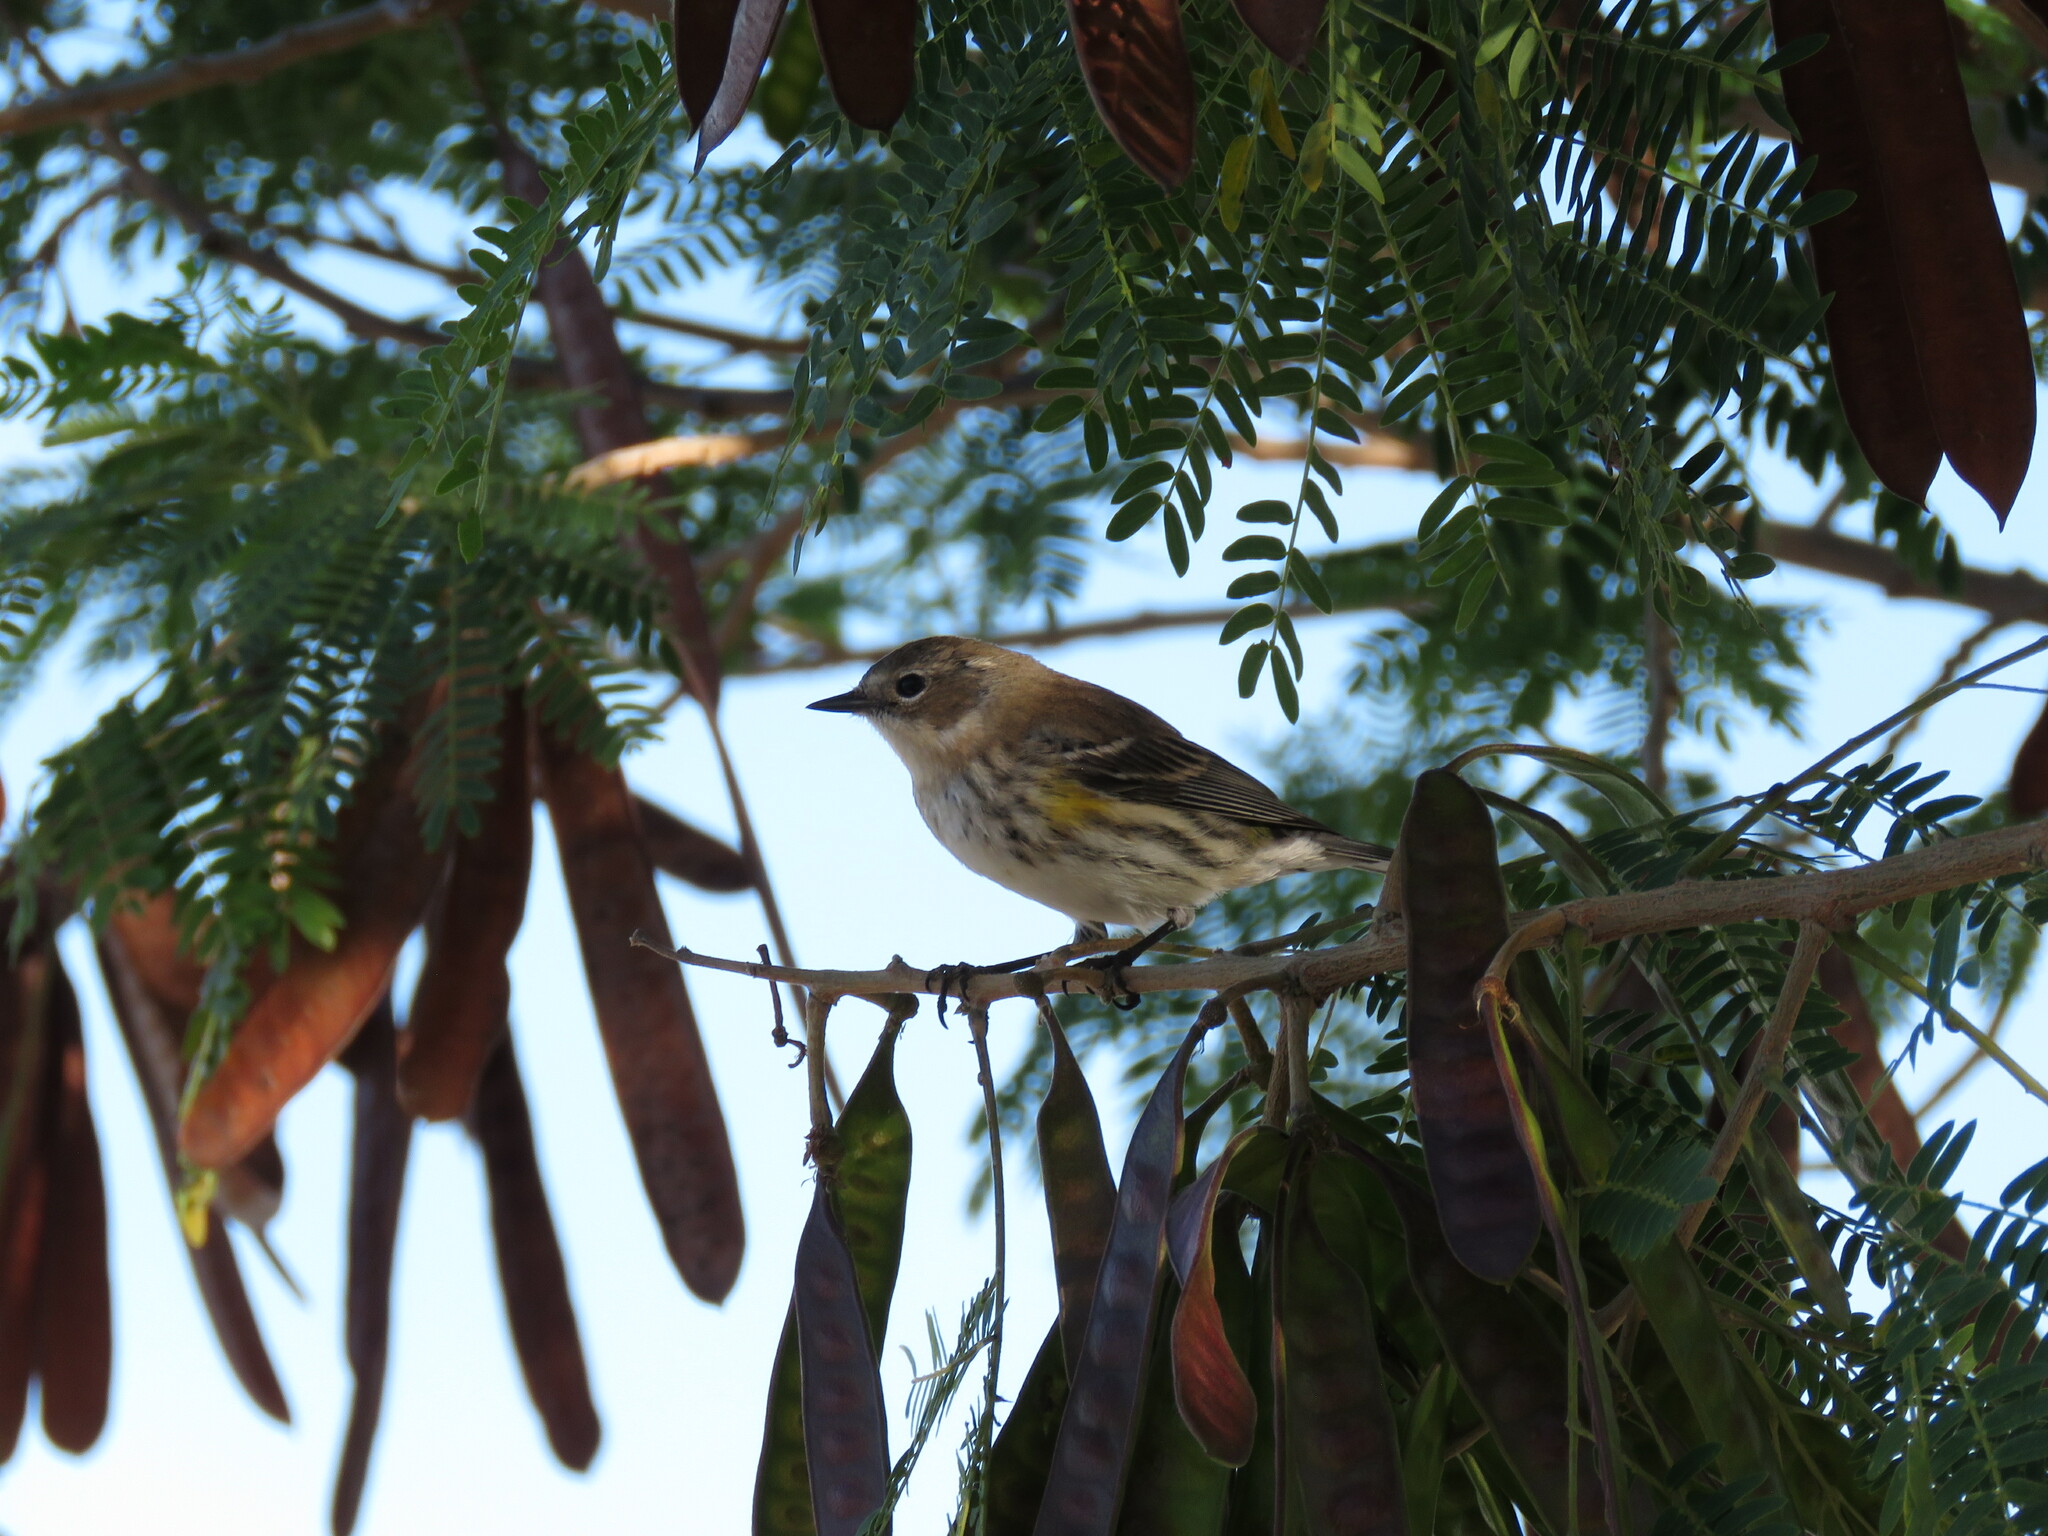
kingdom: Animalia
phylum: Chordata
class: Aves
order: Passeriformes
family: Parulidae
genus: Setophaga
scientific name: Setophaga coronata
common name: Myrtle warbler
